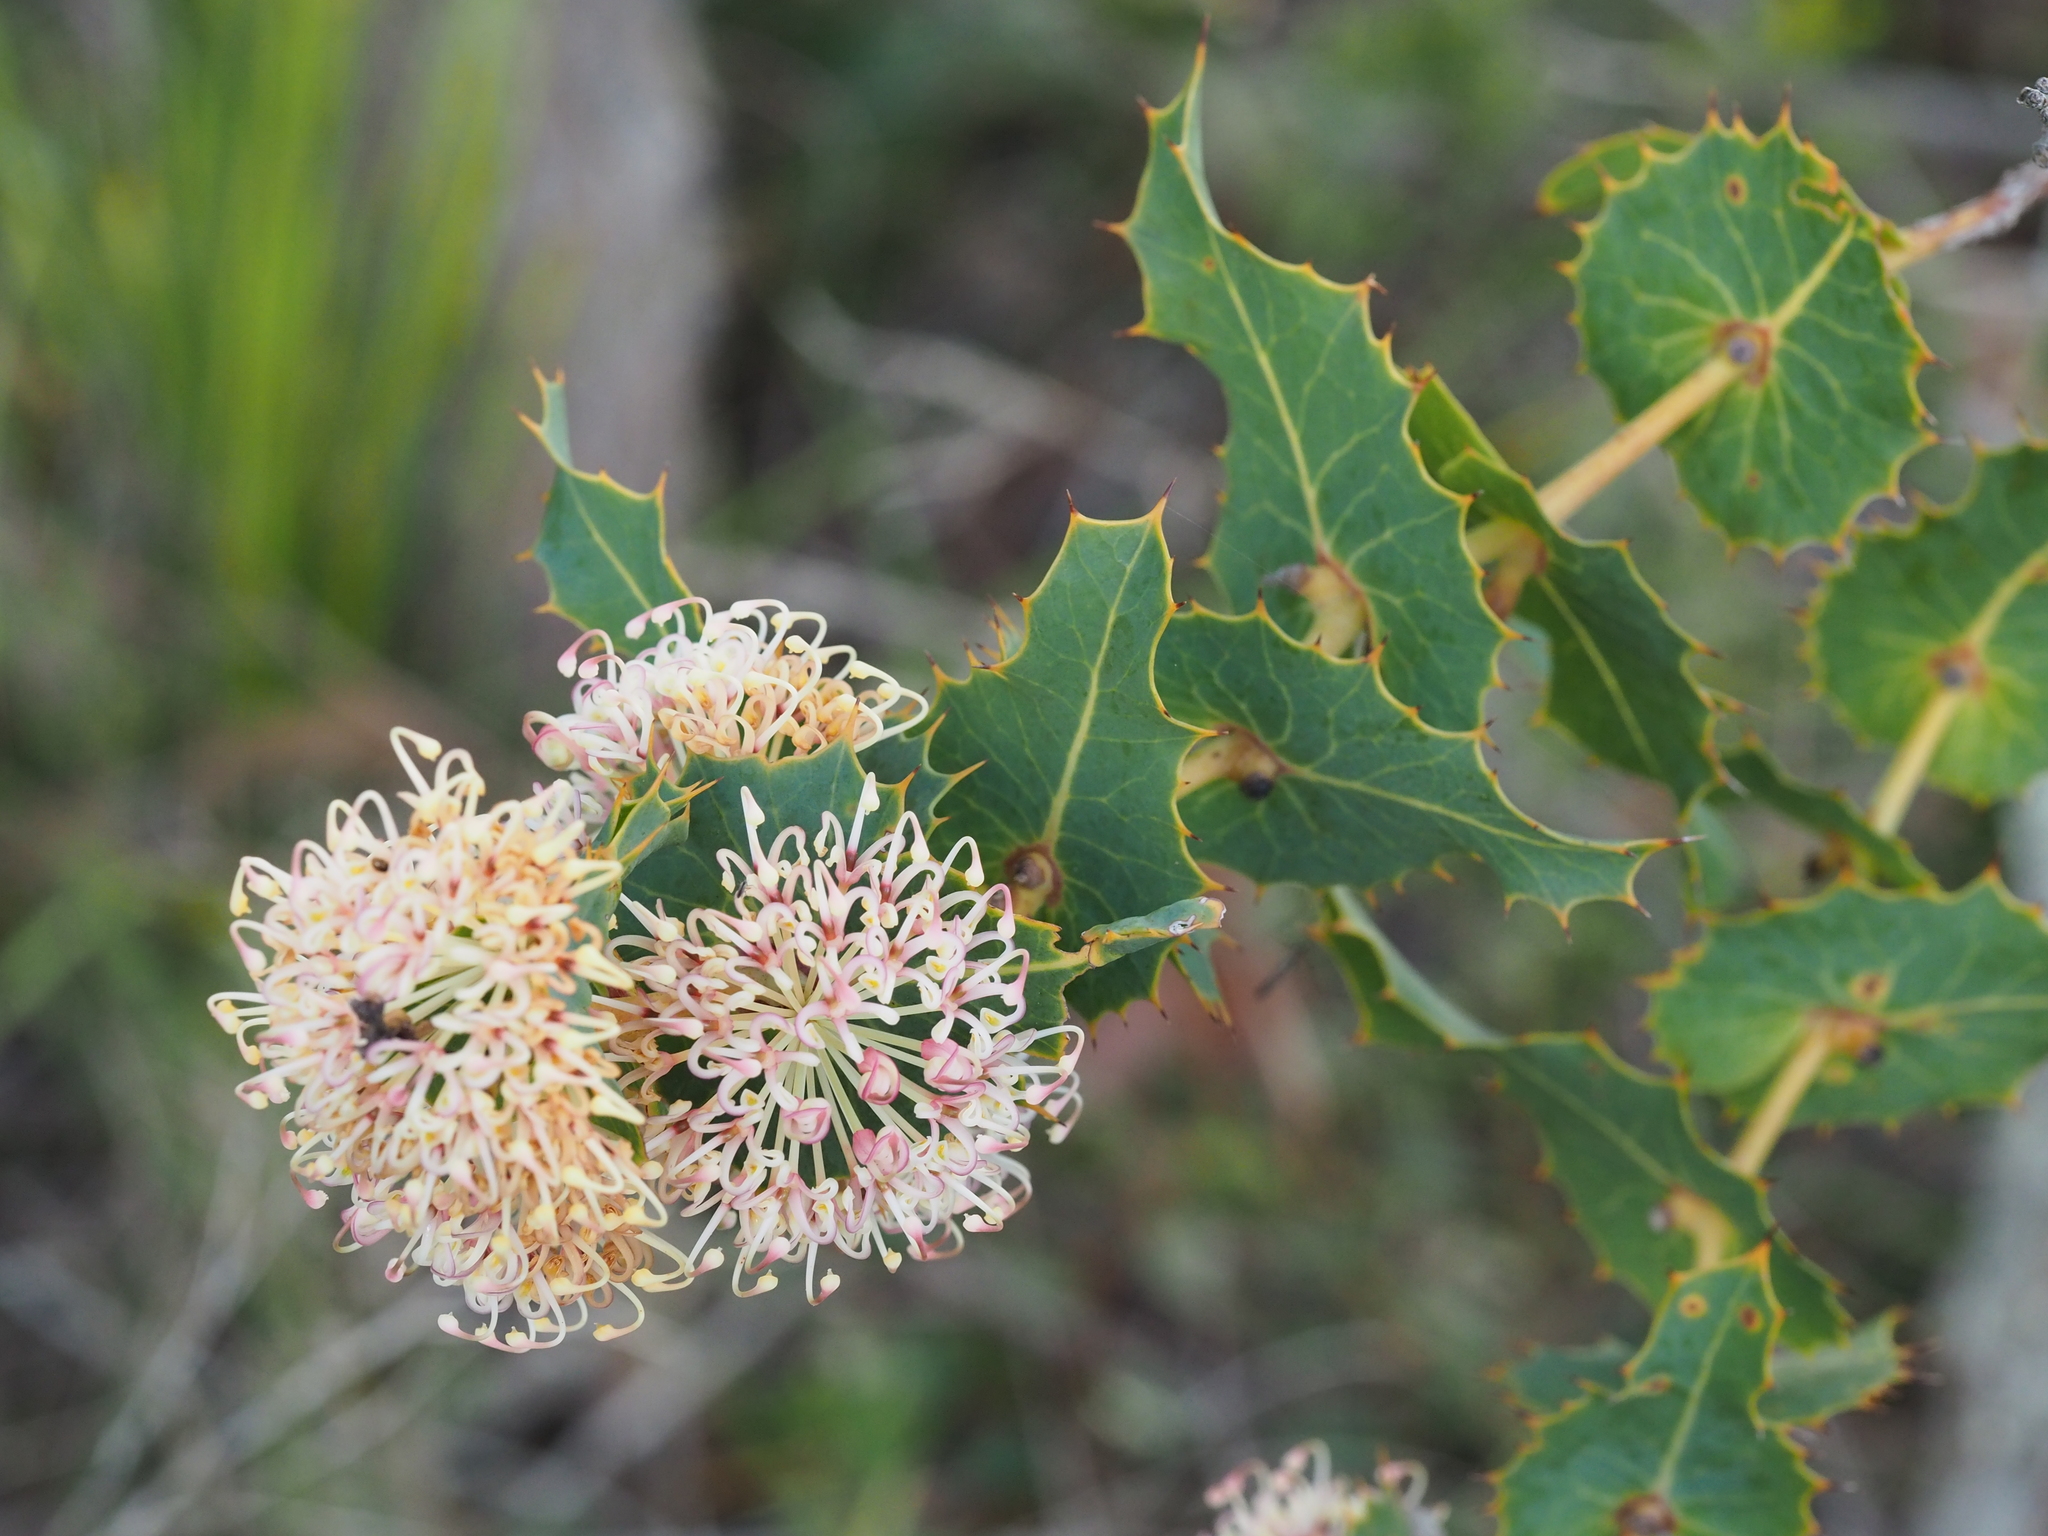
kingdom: Plantae
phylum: Tracheophyta
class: Magnoliopsida
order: Proteales
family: Proteaceae
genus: Hakea
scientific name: Hakea amplexicaulis
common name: Prickly hakea
